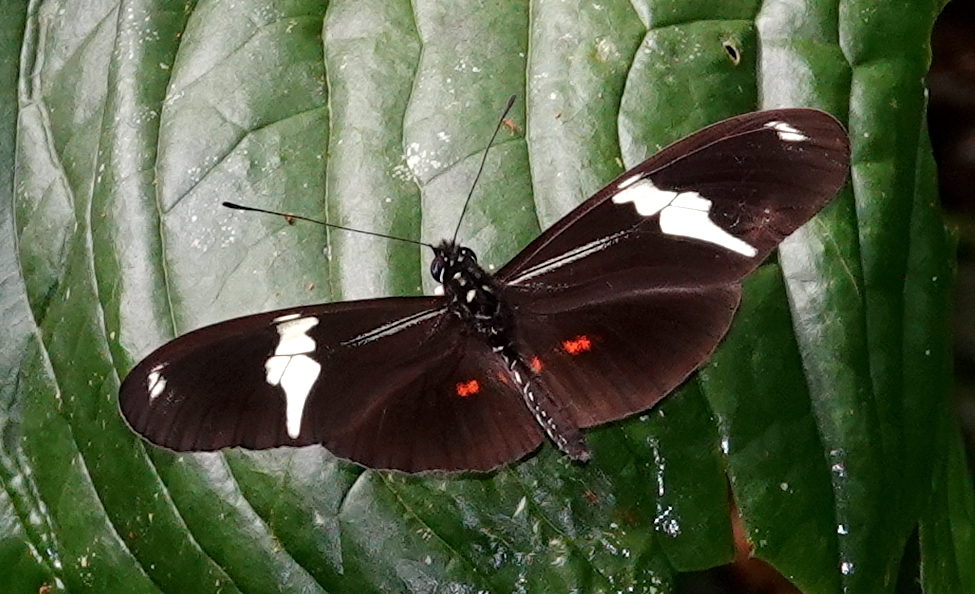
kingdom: Animalia
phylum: Arthropoda
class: Insecta
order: Lepidoptera
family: Nymphalidae
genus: Heliconius
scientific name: Heliconius clysonymus
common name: Clysonymus longwing
